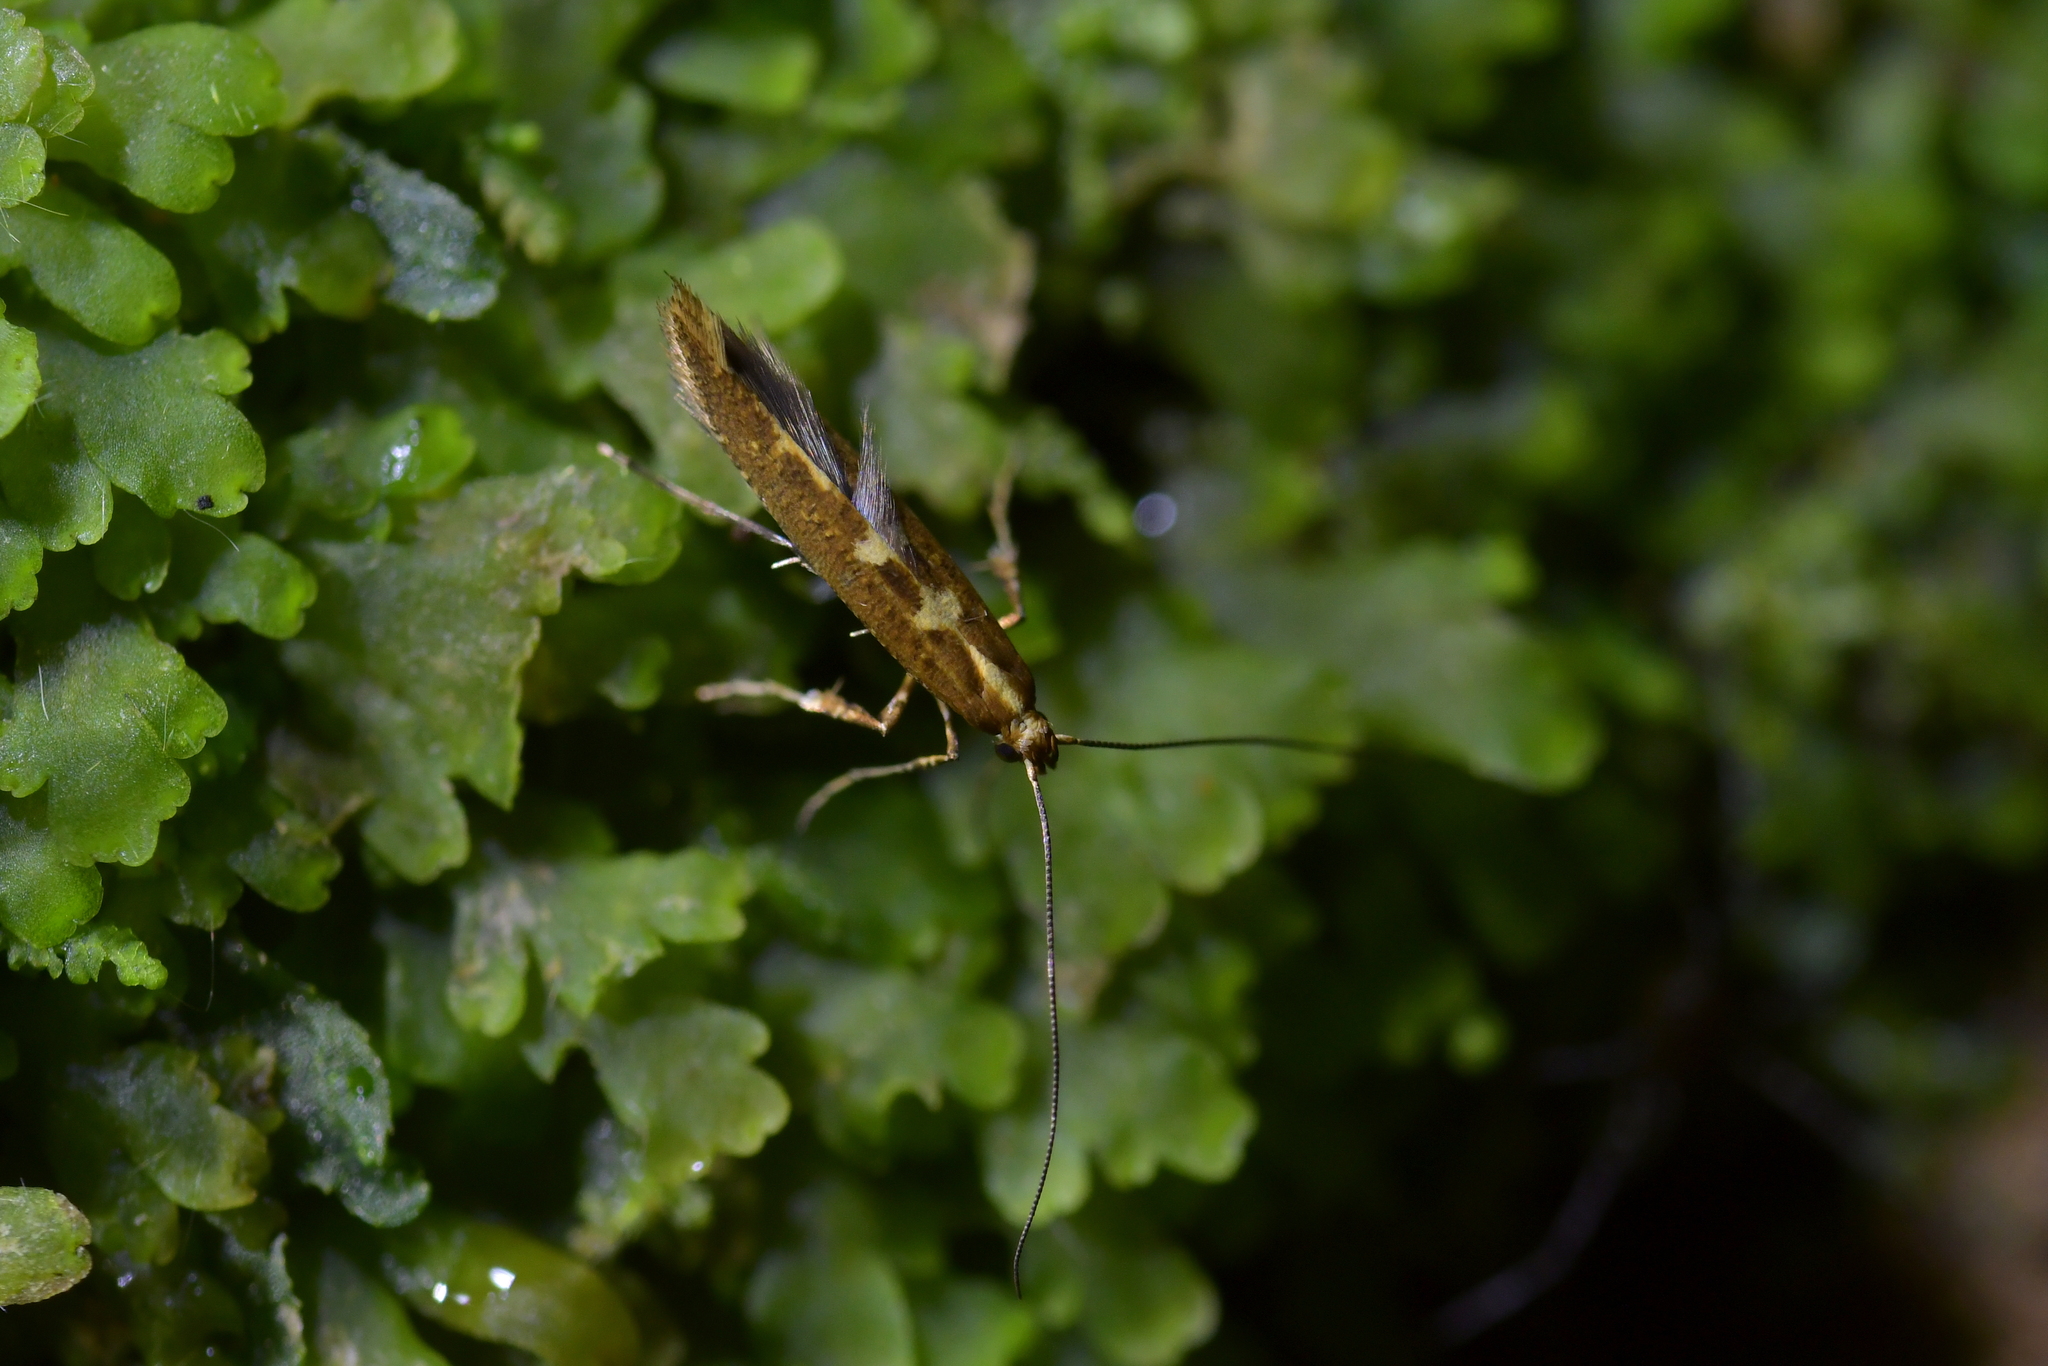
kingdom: Animalia
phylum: Arthropoda
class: Insecta
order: Lepidoptera
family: Gracillariidae
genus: Caloptilia
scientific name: Caloptilia selenitis
